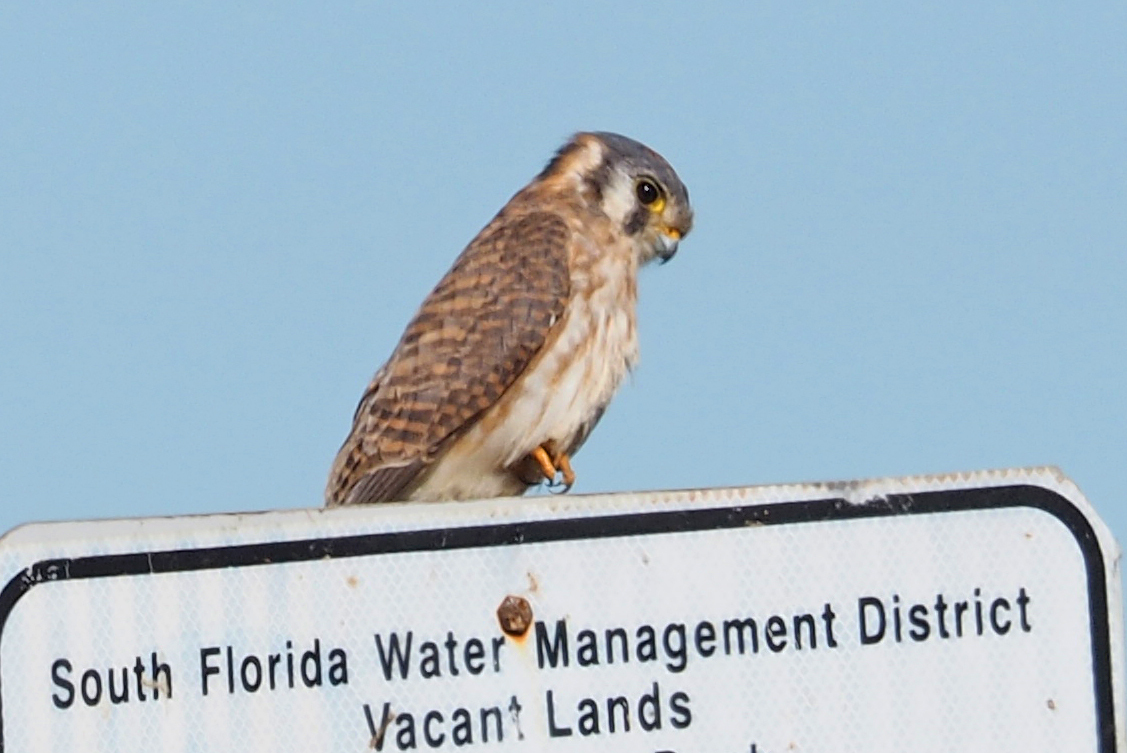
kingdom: Animalia
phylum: Chordata
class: Aves
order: Falconiformes
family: Falconidae
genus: Falco
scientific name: Falco sparverius
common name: American kestrel
